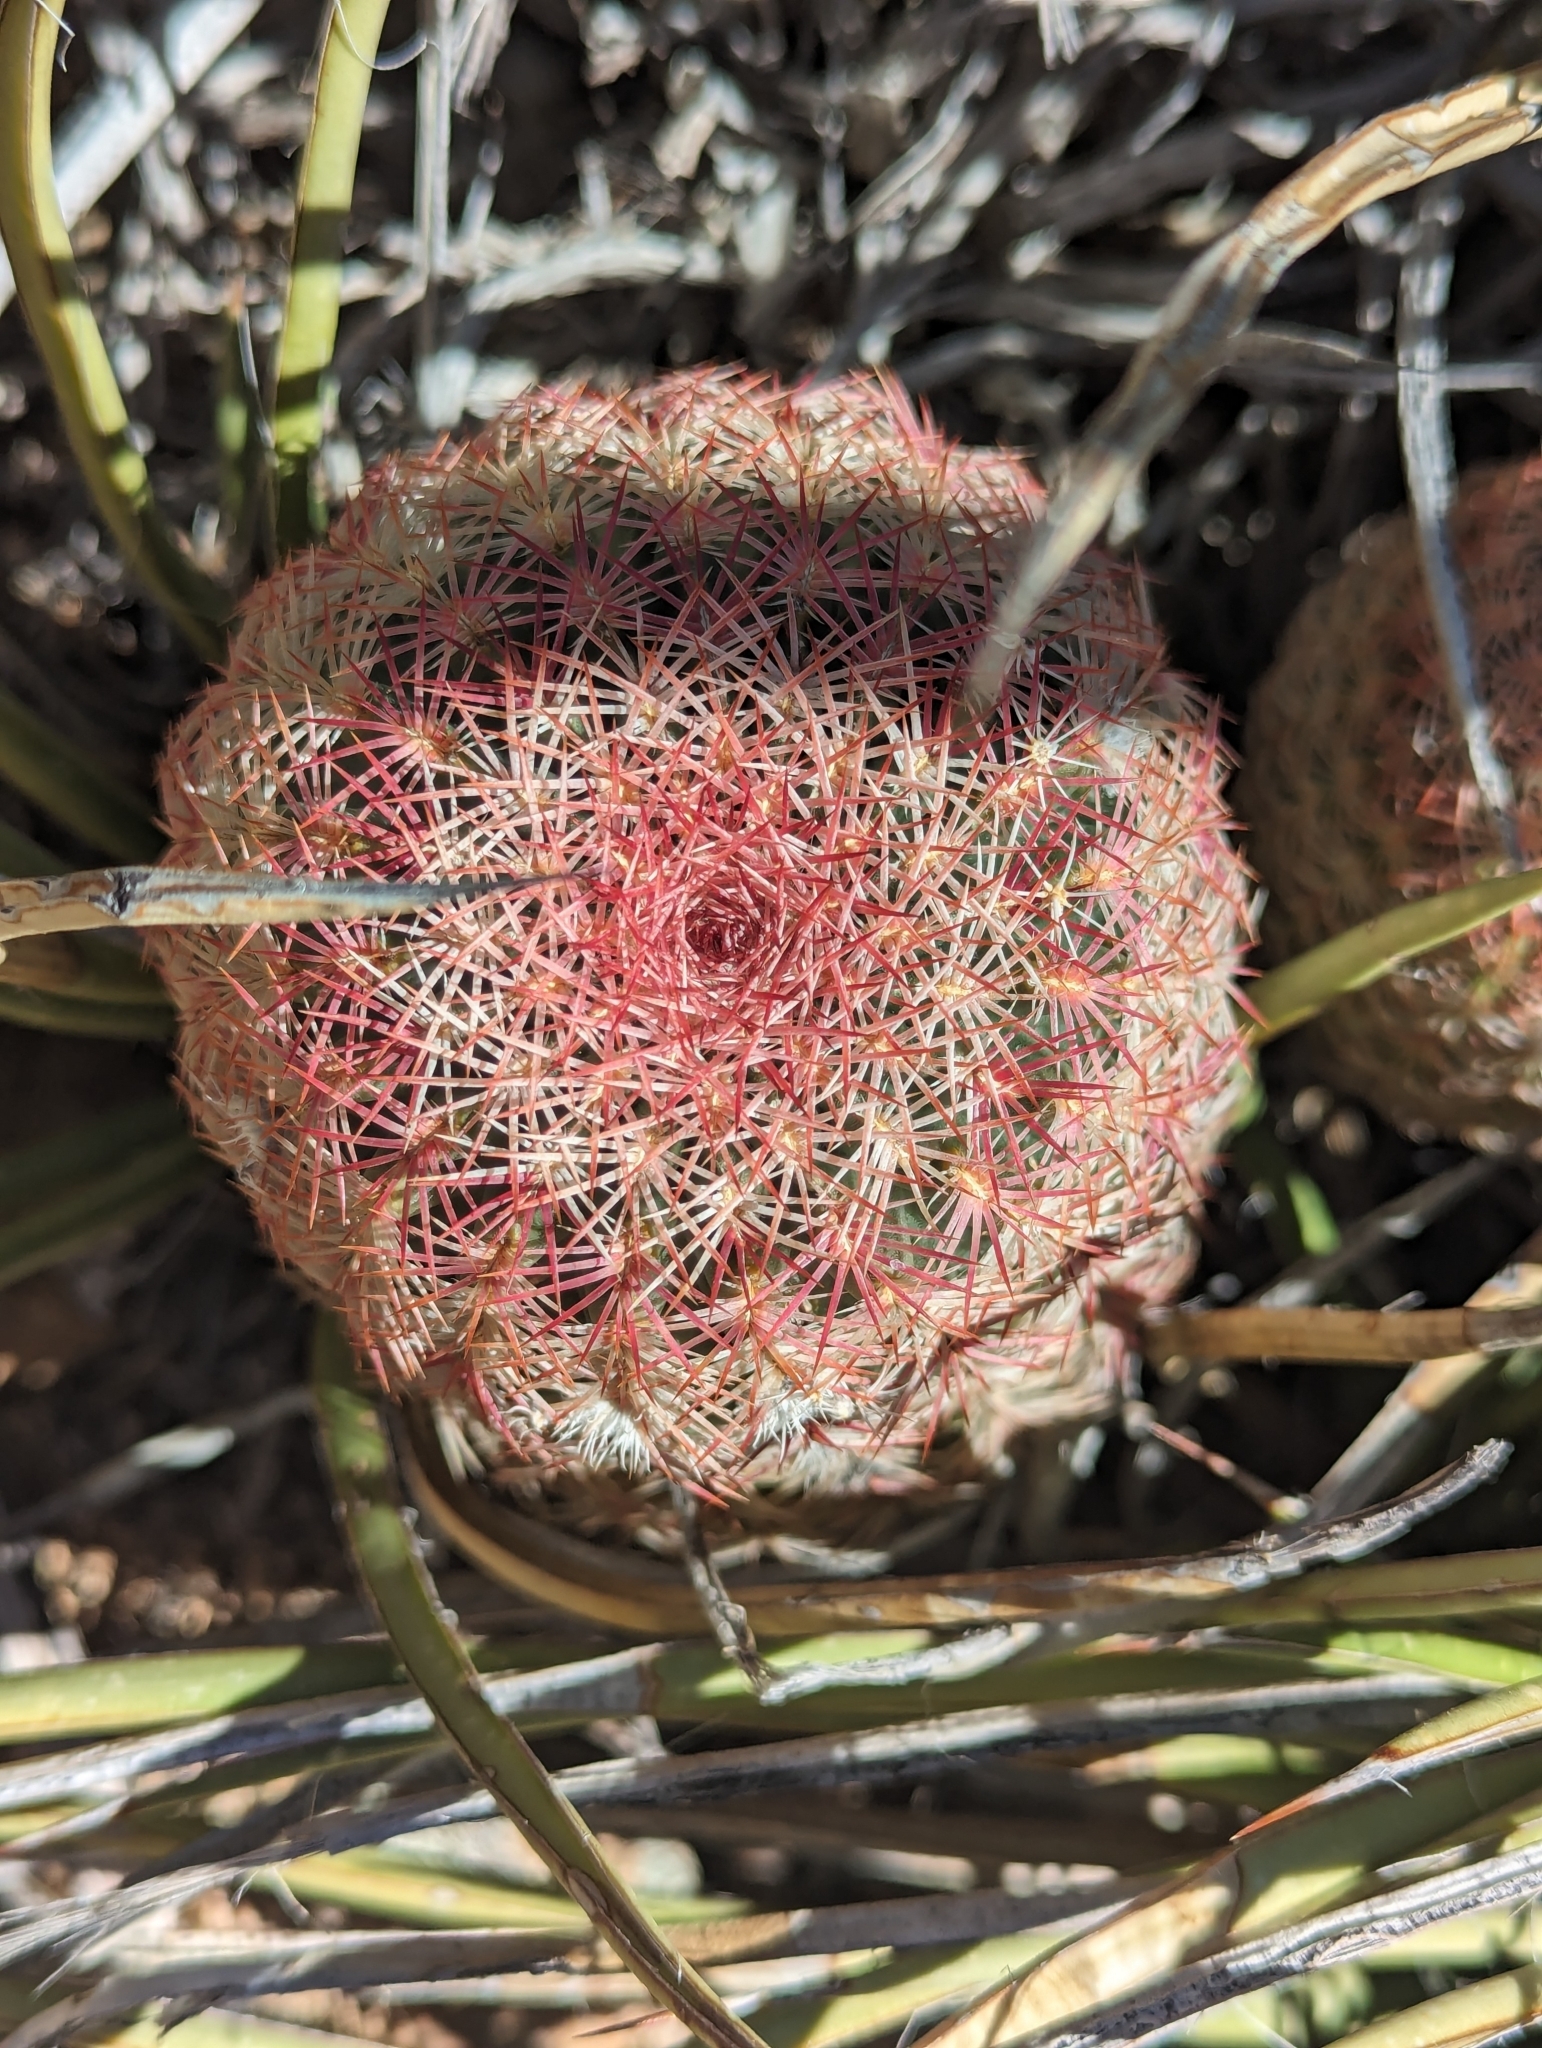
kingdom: Plantae
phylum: Tracheophyta
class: Magnoliopsida
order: Caryophyllales
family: Cactaceae
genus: Echinocereus
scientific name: Echinocereus rigidissimus
